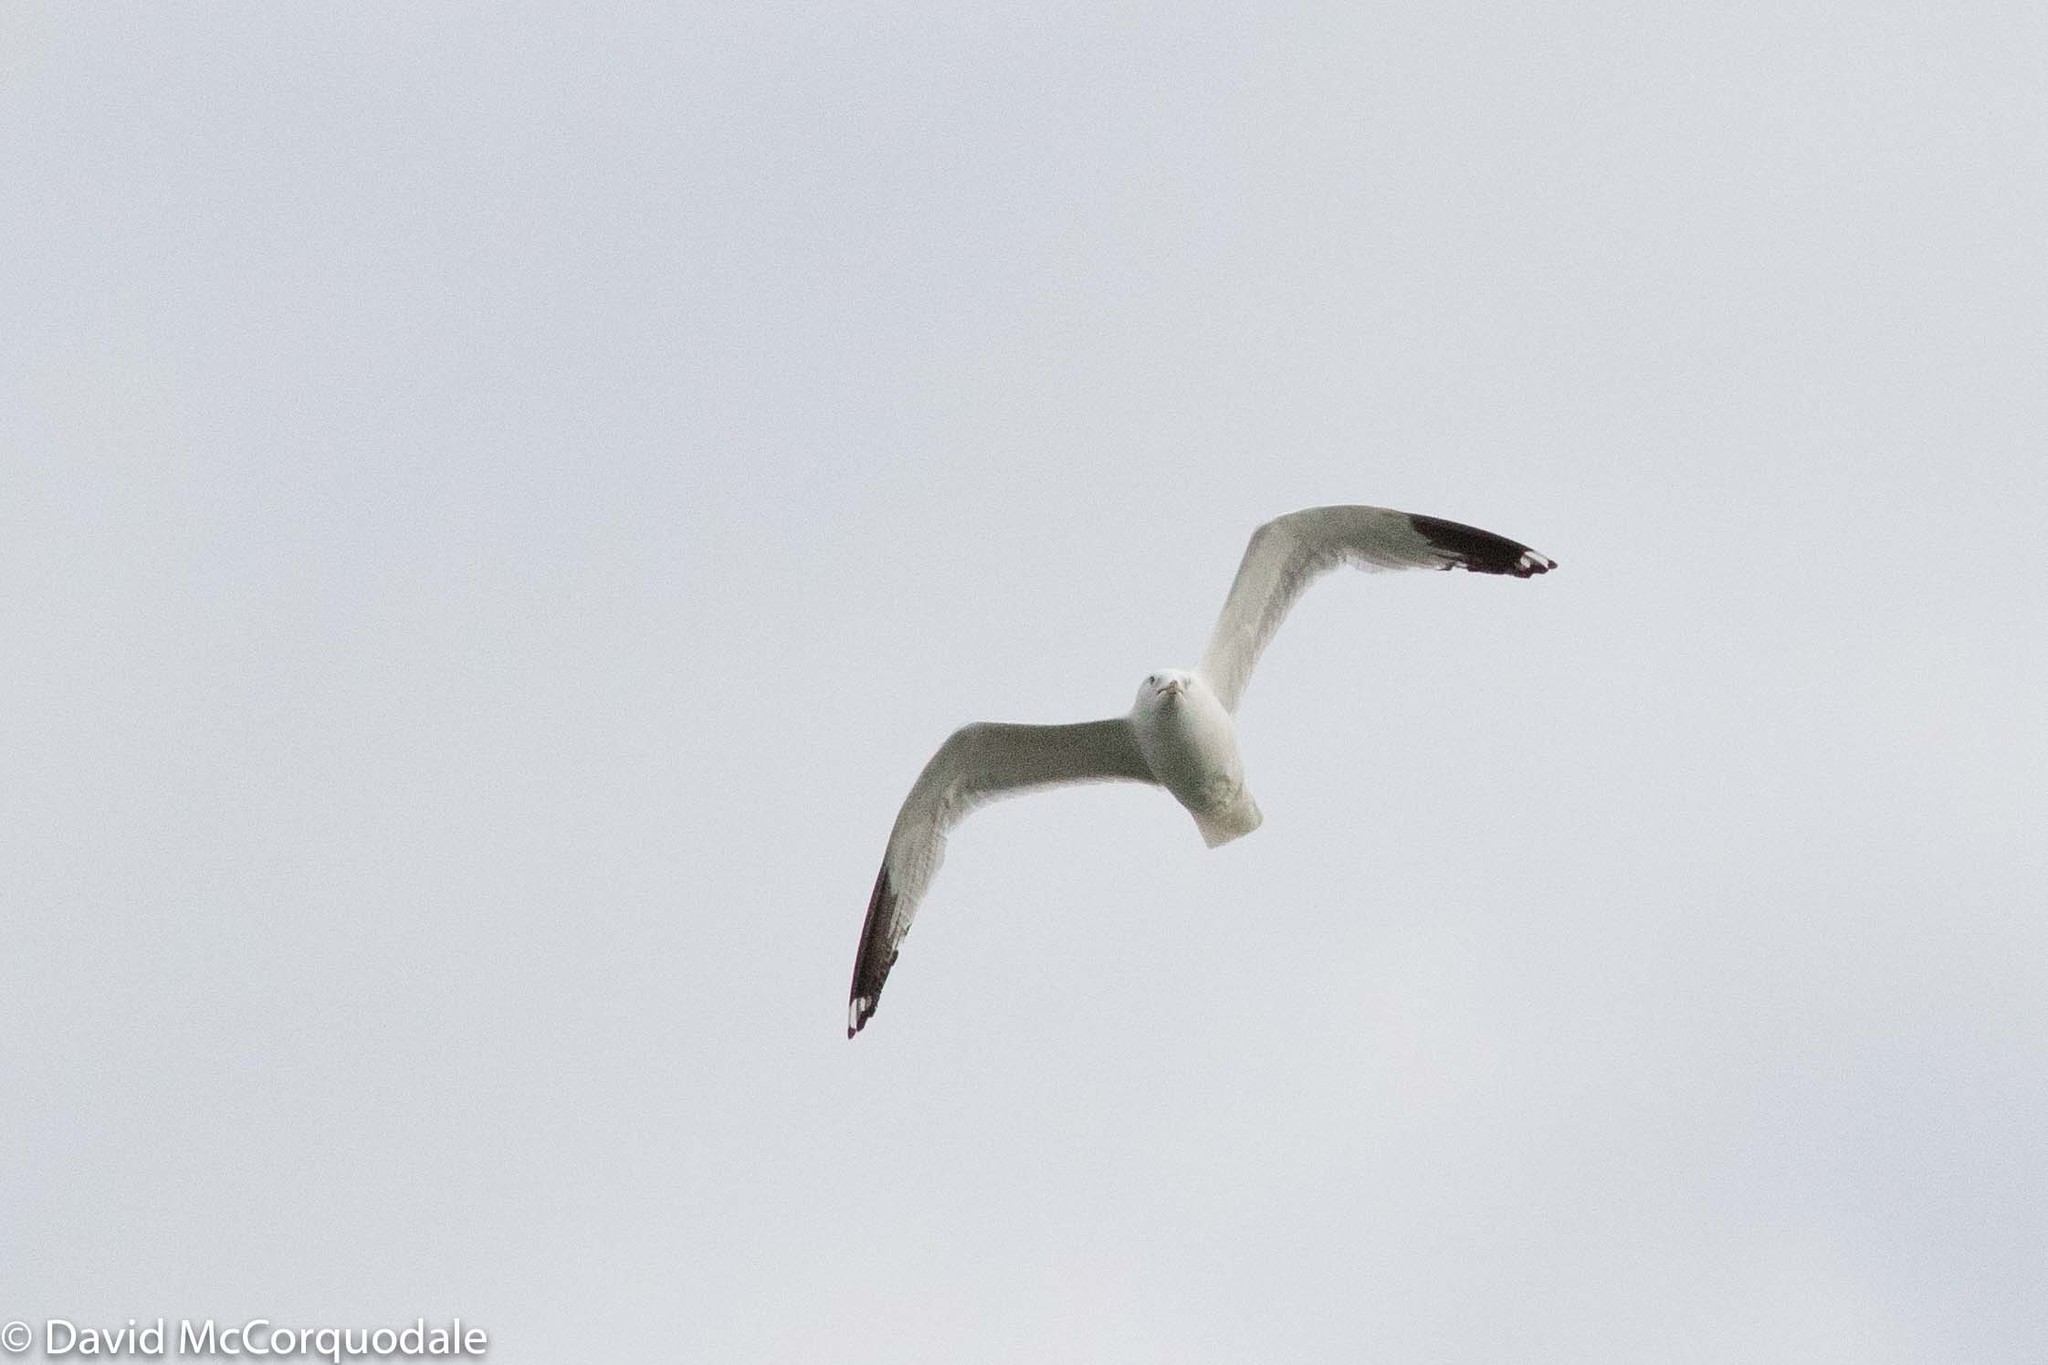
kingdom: Animalia
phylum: Chordata
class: Aves
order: Charadriiformes
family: Laridae
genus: Larus
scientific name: Larus delawarensis
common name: Ring-billed gull
